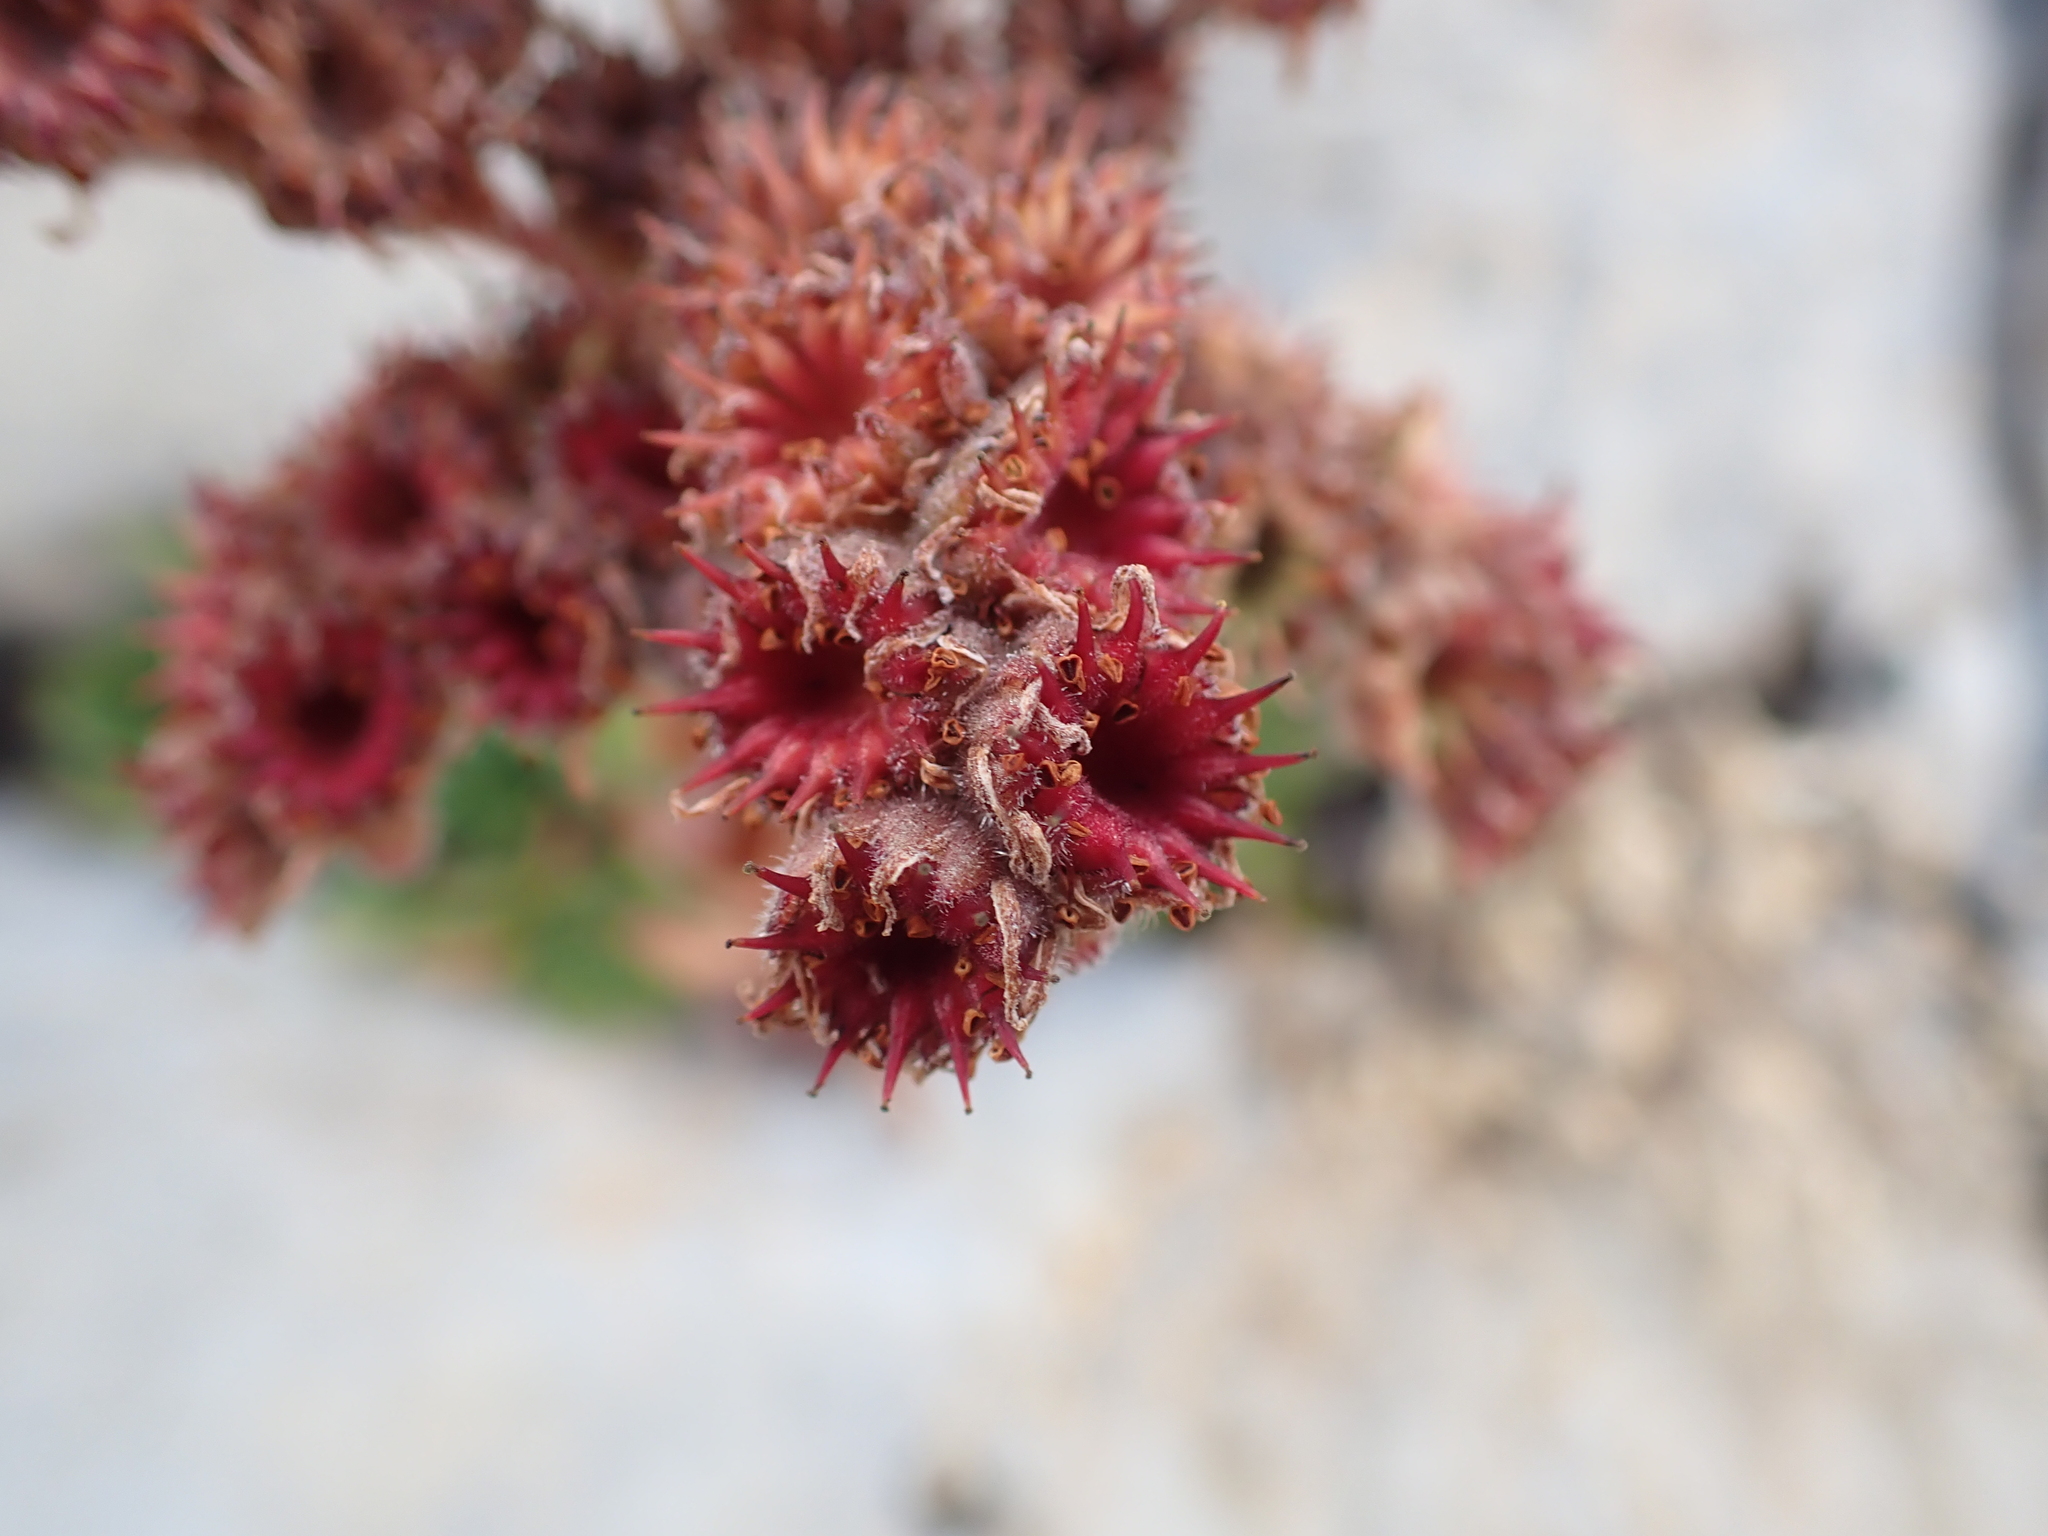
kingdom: Plantae
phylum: Tracheophyta
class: Magnoliopsida
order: Saxifragales
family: Crassulaceae
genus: Sempervivum
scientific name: Sempervivum tectorum
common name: House-leek
